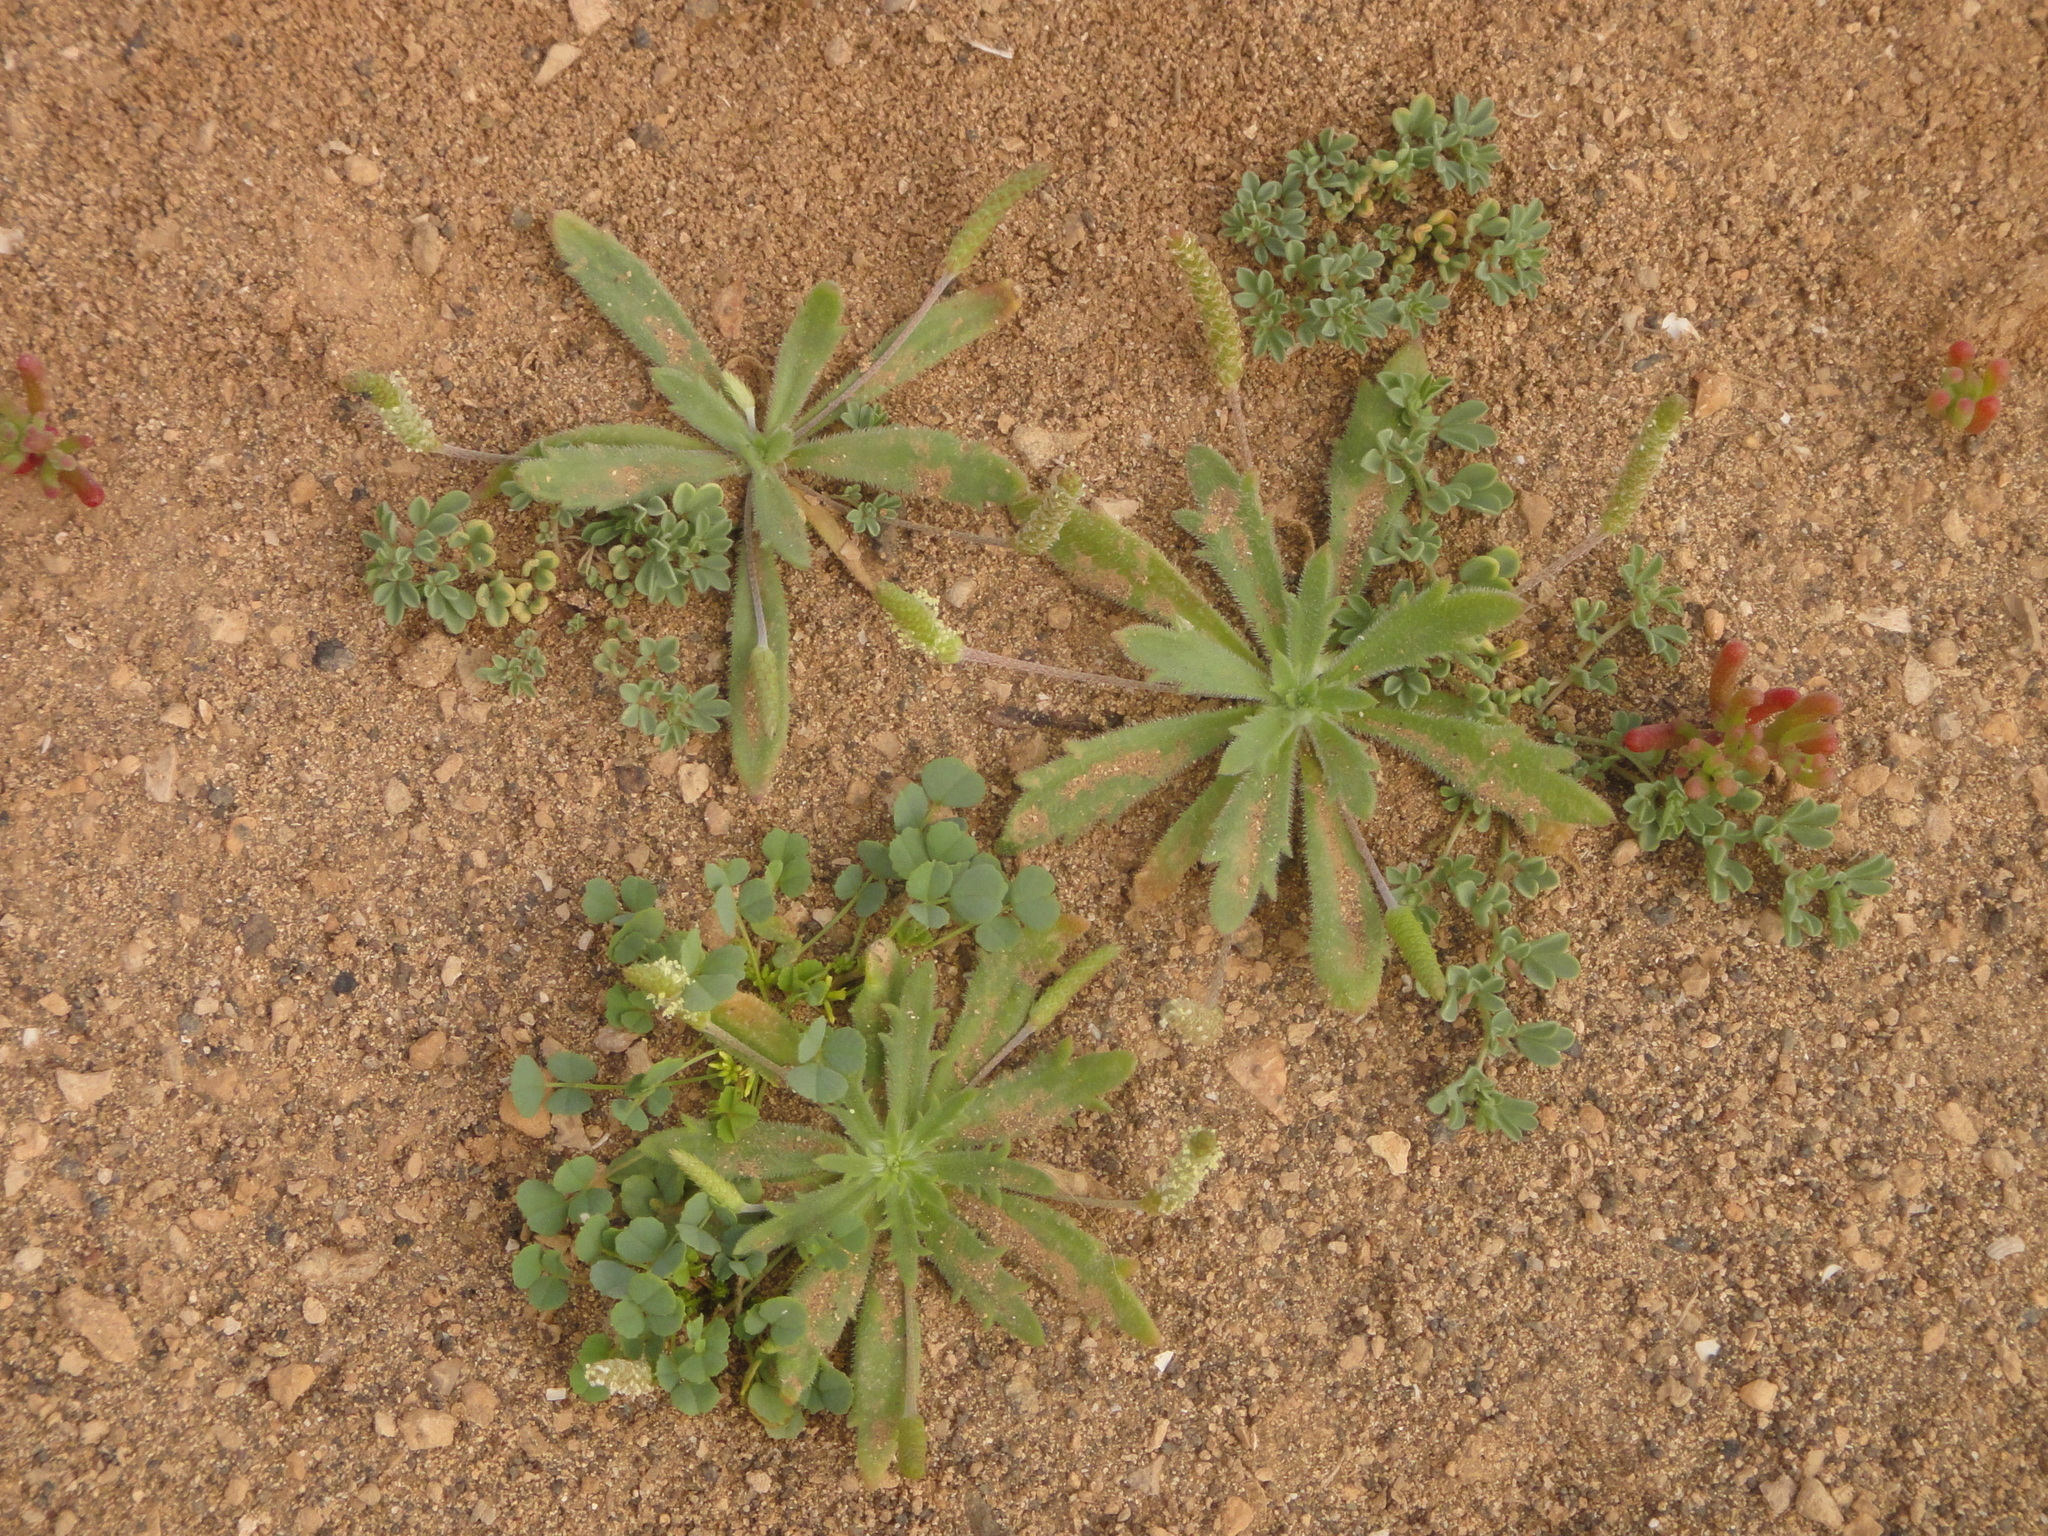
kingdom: Plantae
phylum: Tracheophyta
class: Magnoliopsida
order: Lamiales
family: Plantaginaceae
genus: Plantago
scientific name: Plantago coronopus
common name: Buck's-horn plantain
